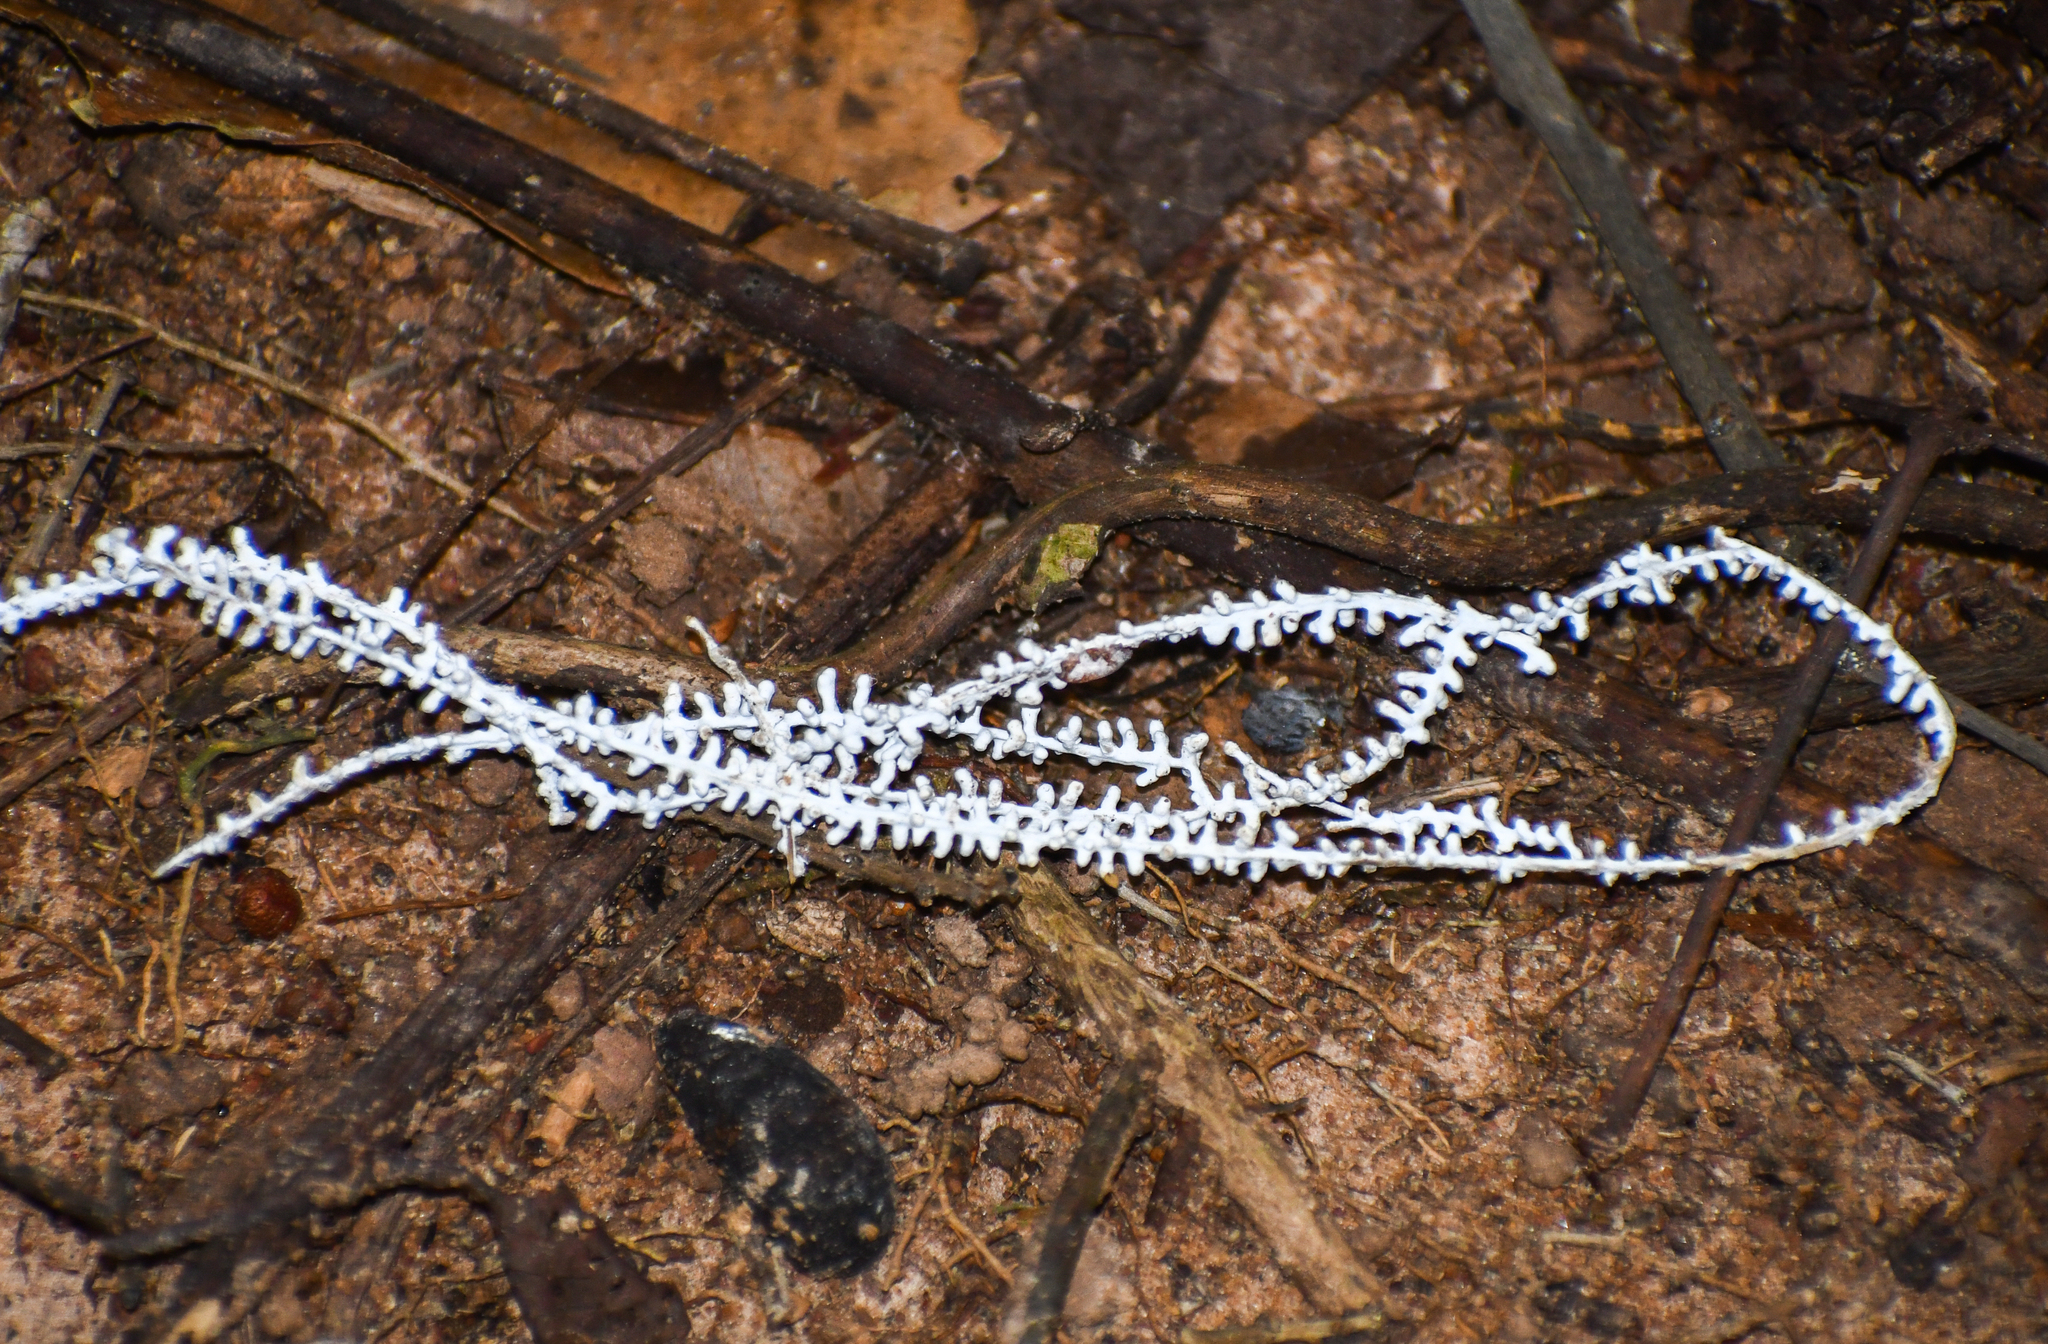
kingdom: Fungi
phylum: Basidiomycota
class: Agaricomycetes
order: Agaricales
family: Marasmiaceae
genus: Brunneocorticium
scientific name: Brunneocorticium corynecarpon
